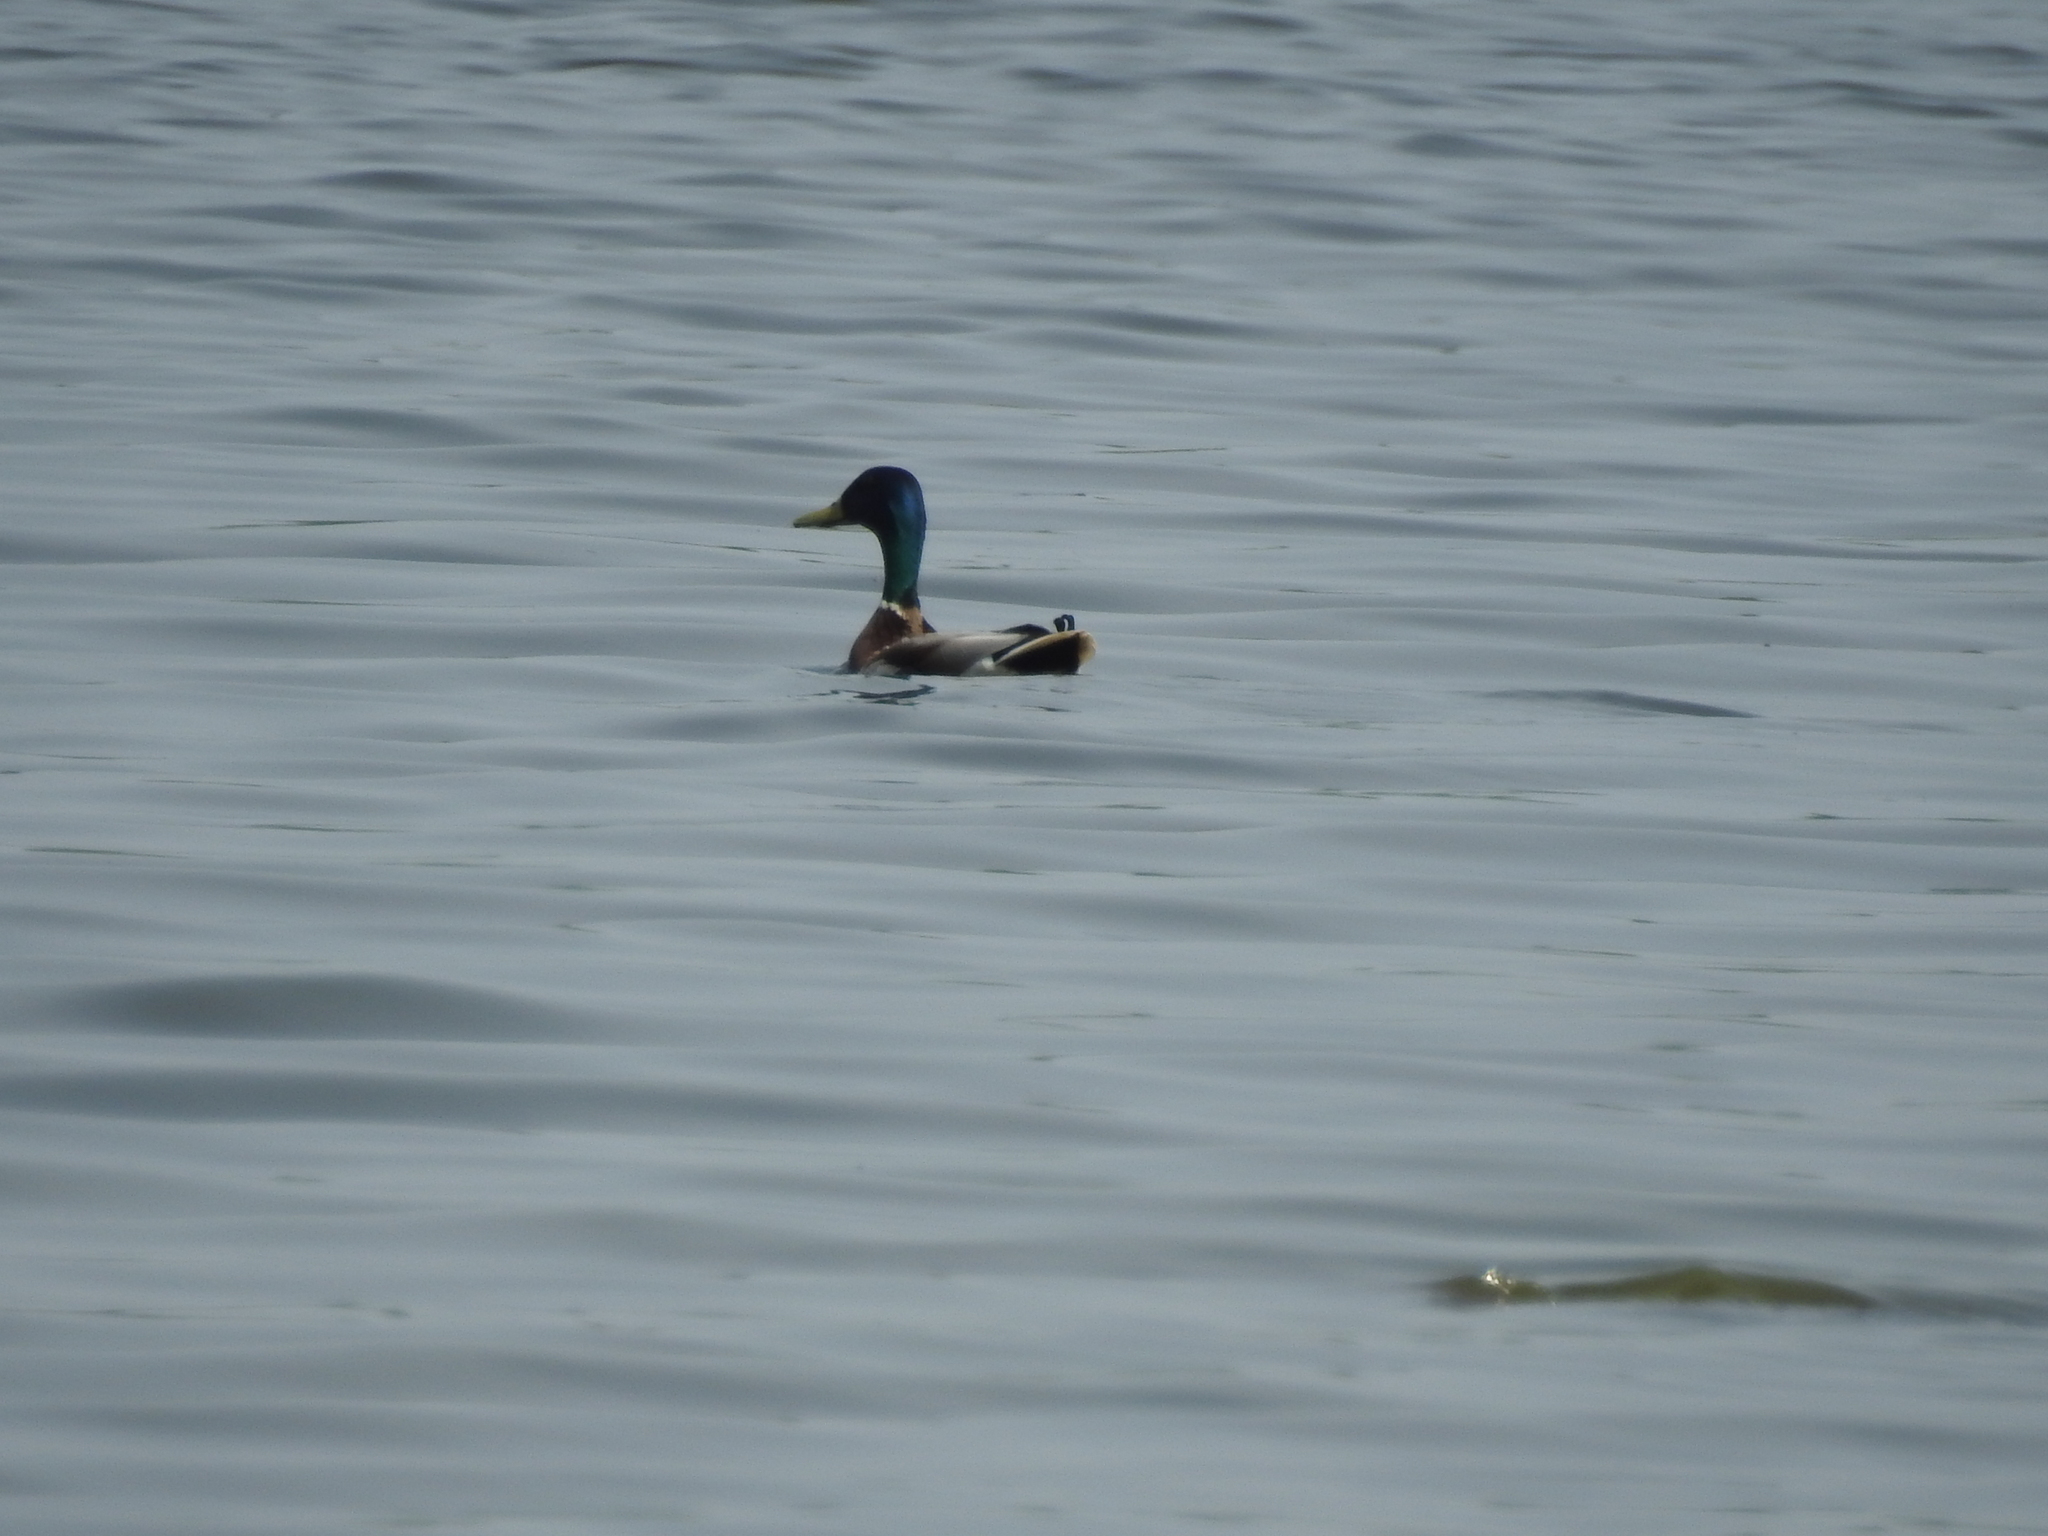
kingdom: Animalia
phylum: Chordata
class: Aves
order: Anseriformes
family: Anatidae
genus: Anas
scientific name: Anas platyrhynchos
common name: Mallard
